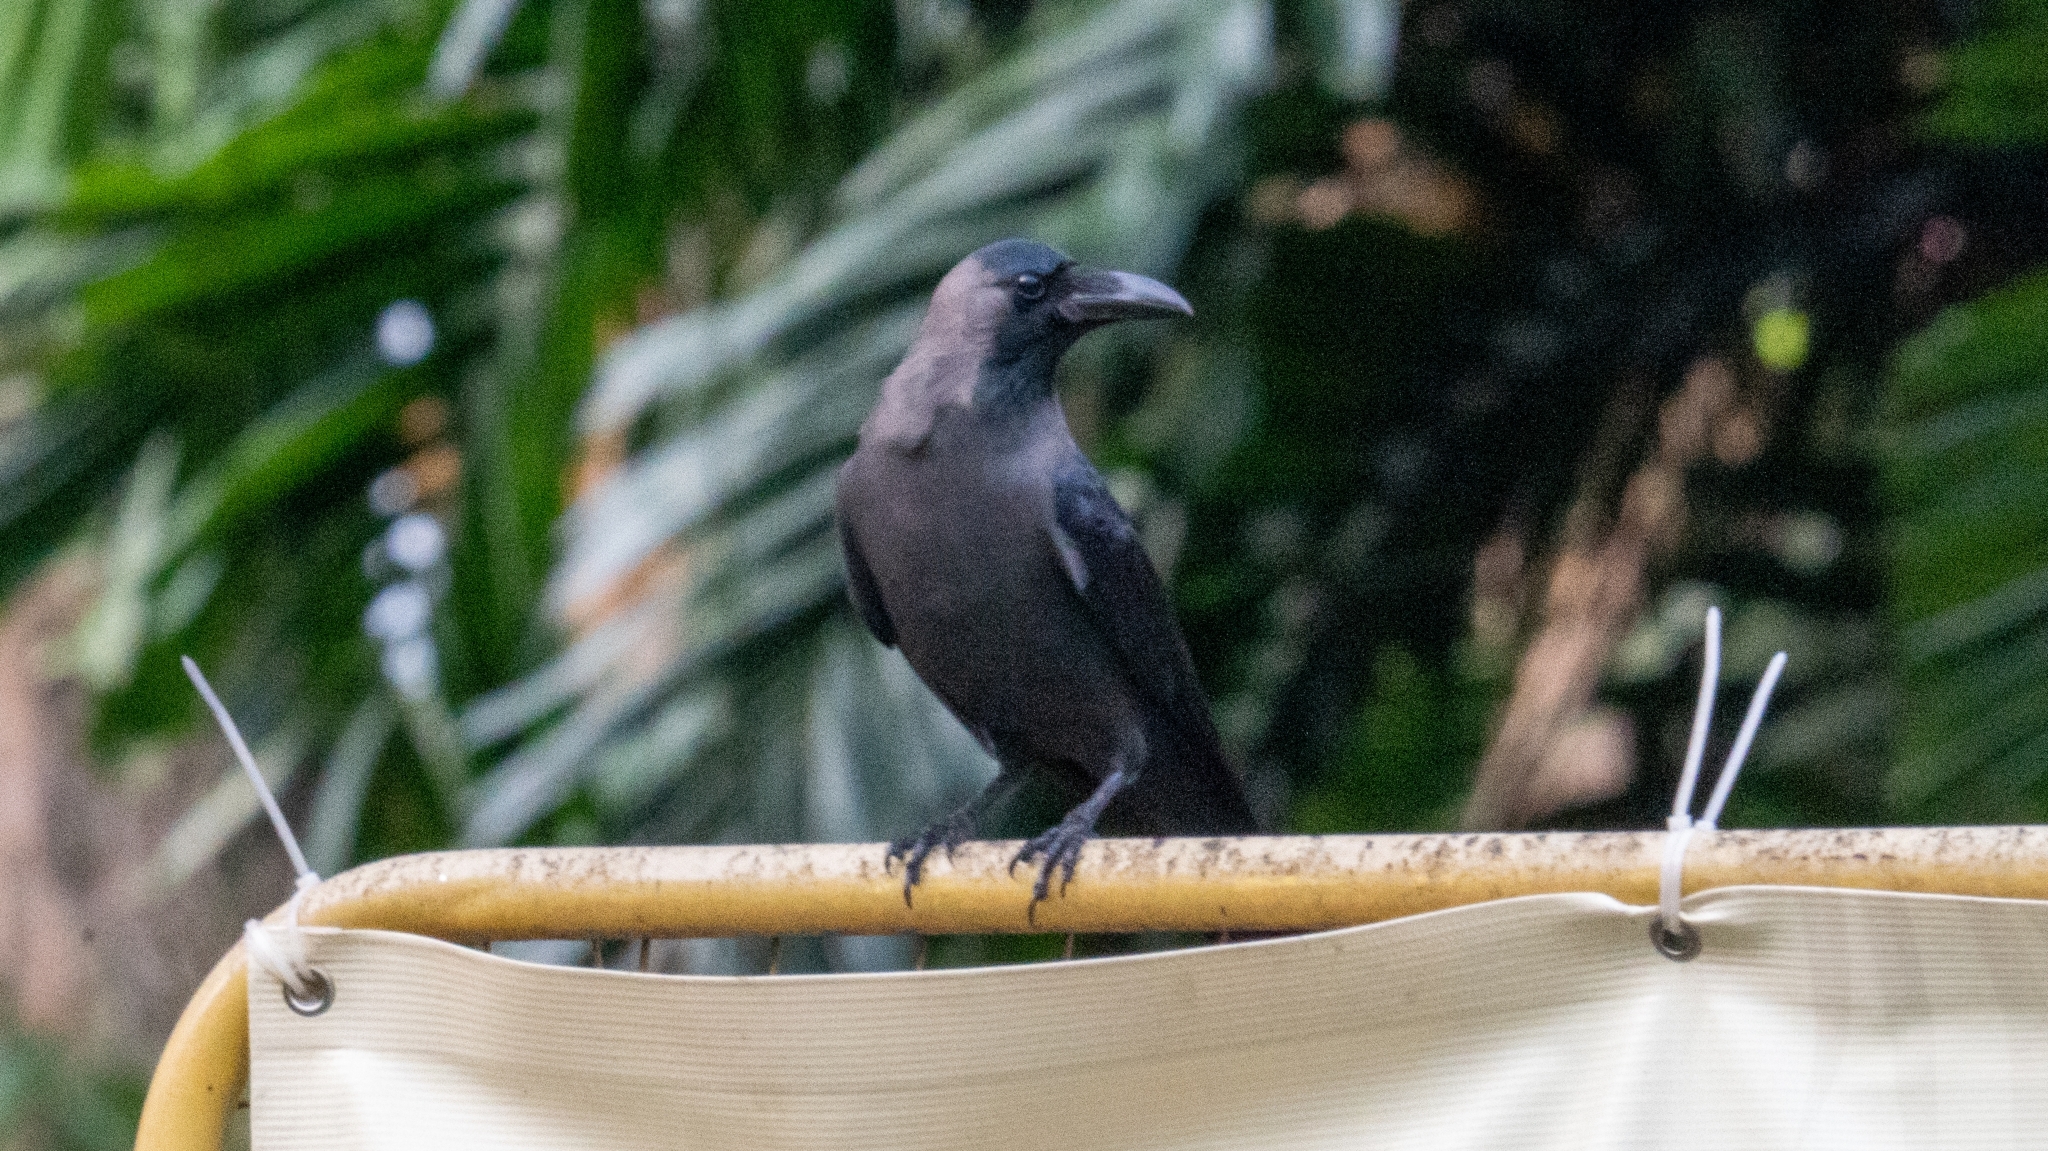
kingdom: Animalia
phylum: Chordata
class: Aves
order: Passeriformes
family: Corvidae
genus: Corvus
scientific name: Corvus splendens
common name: House crow
